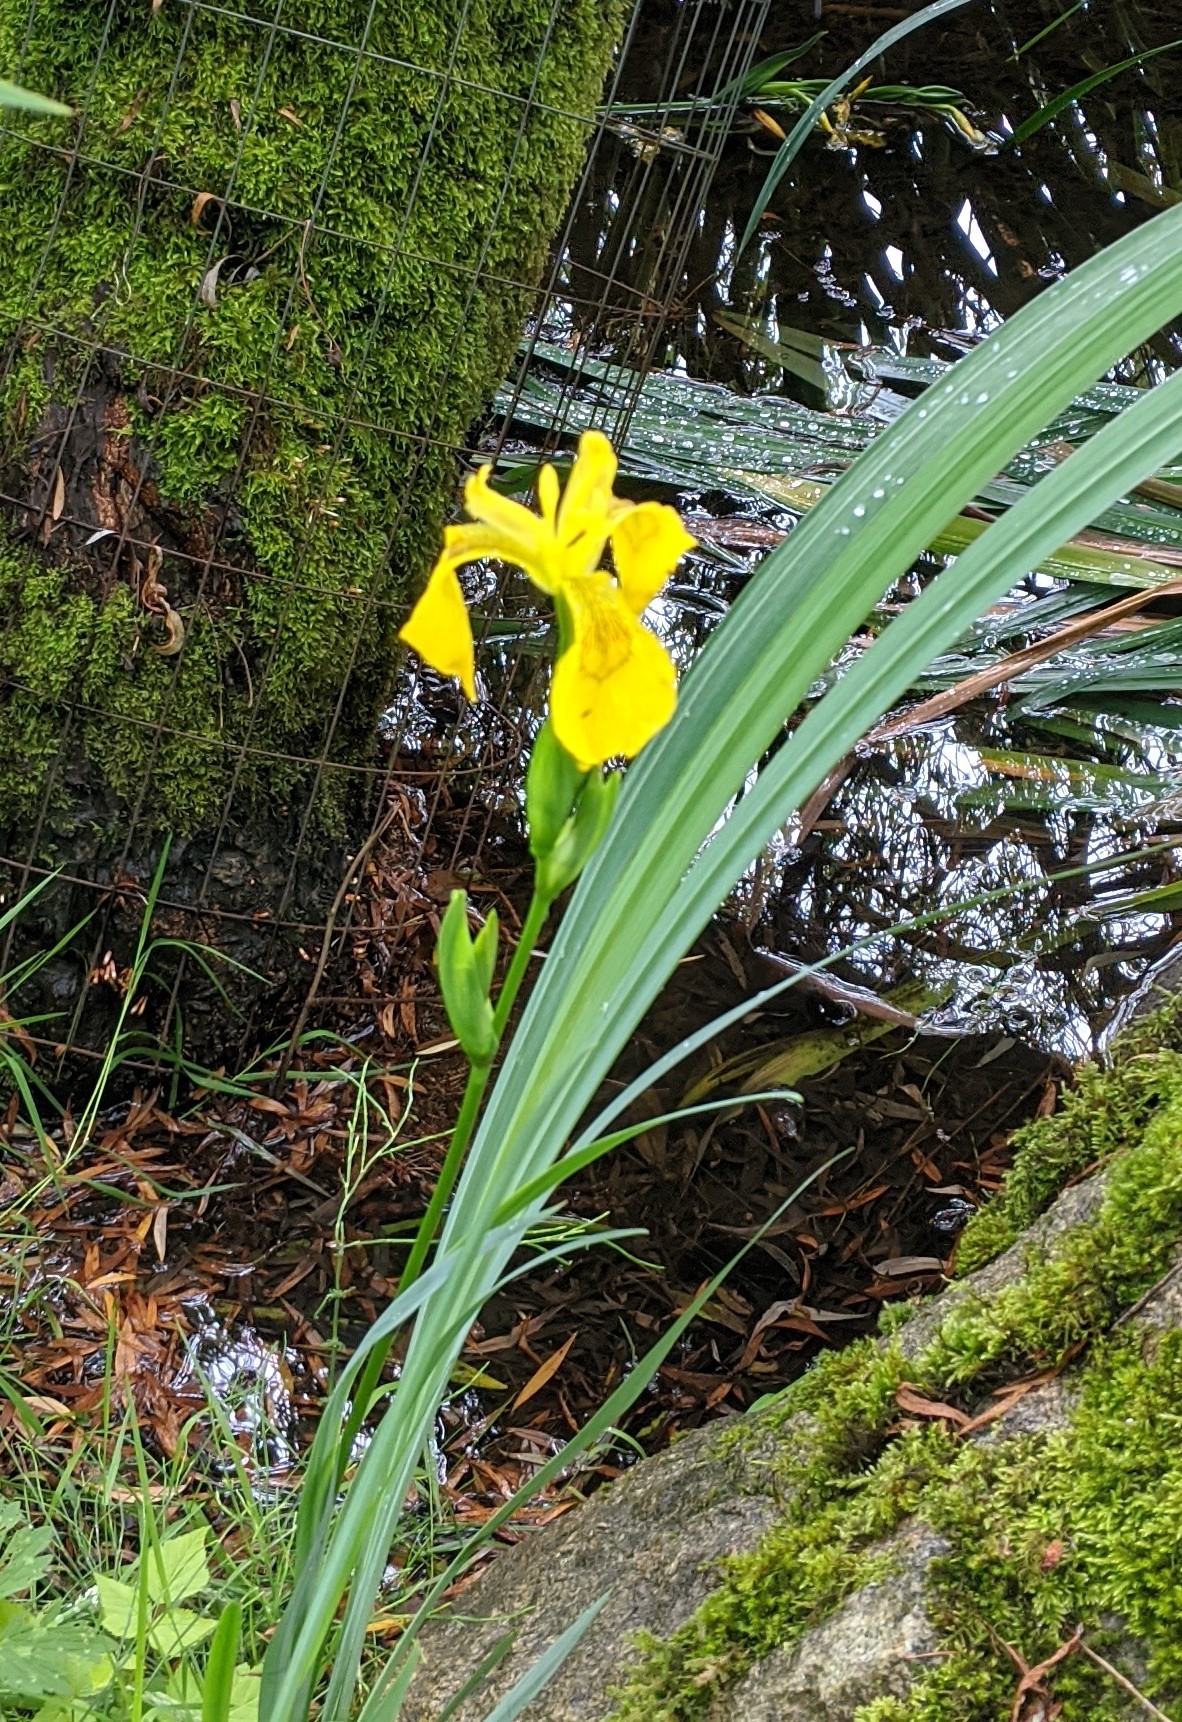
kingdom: Plantae
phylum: Tracheophyta
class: Liliopsida
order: Asparagales
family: Iridaceae
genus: Iris
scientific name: Iris pseudacorus
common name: Yellow flag
